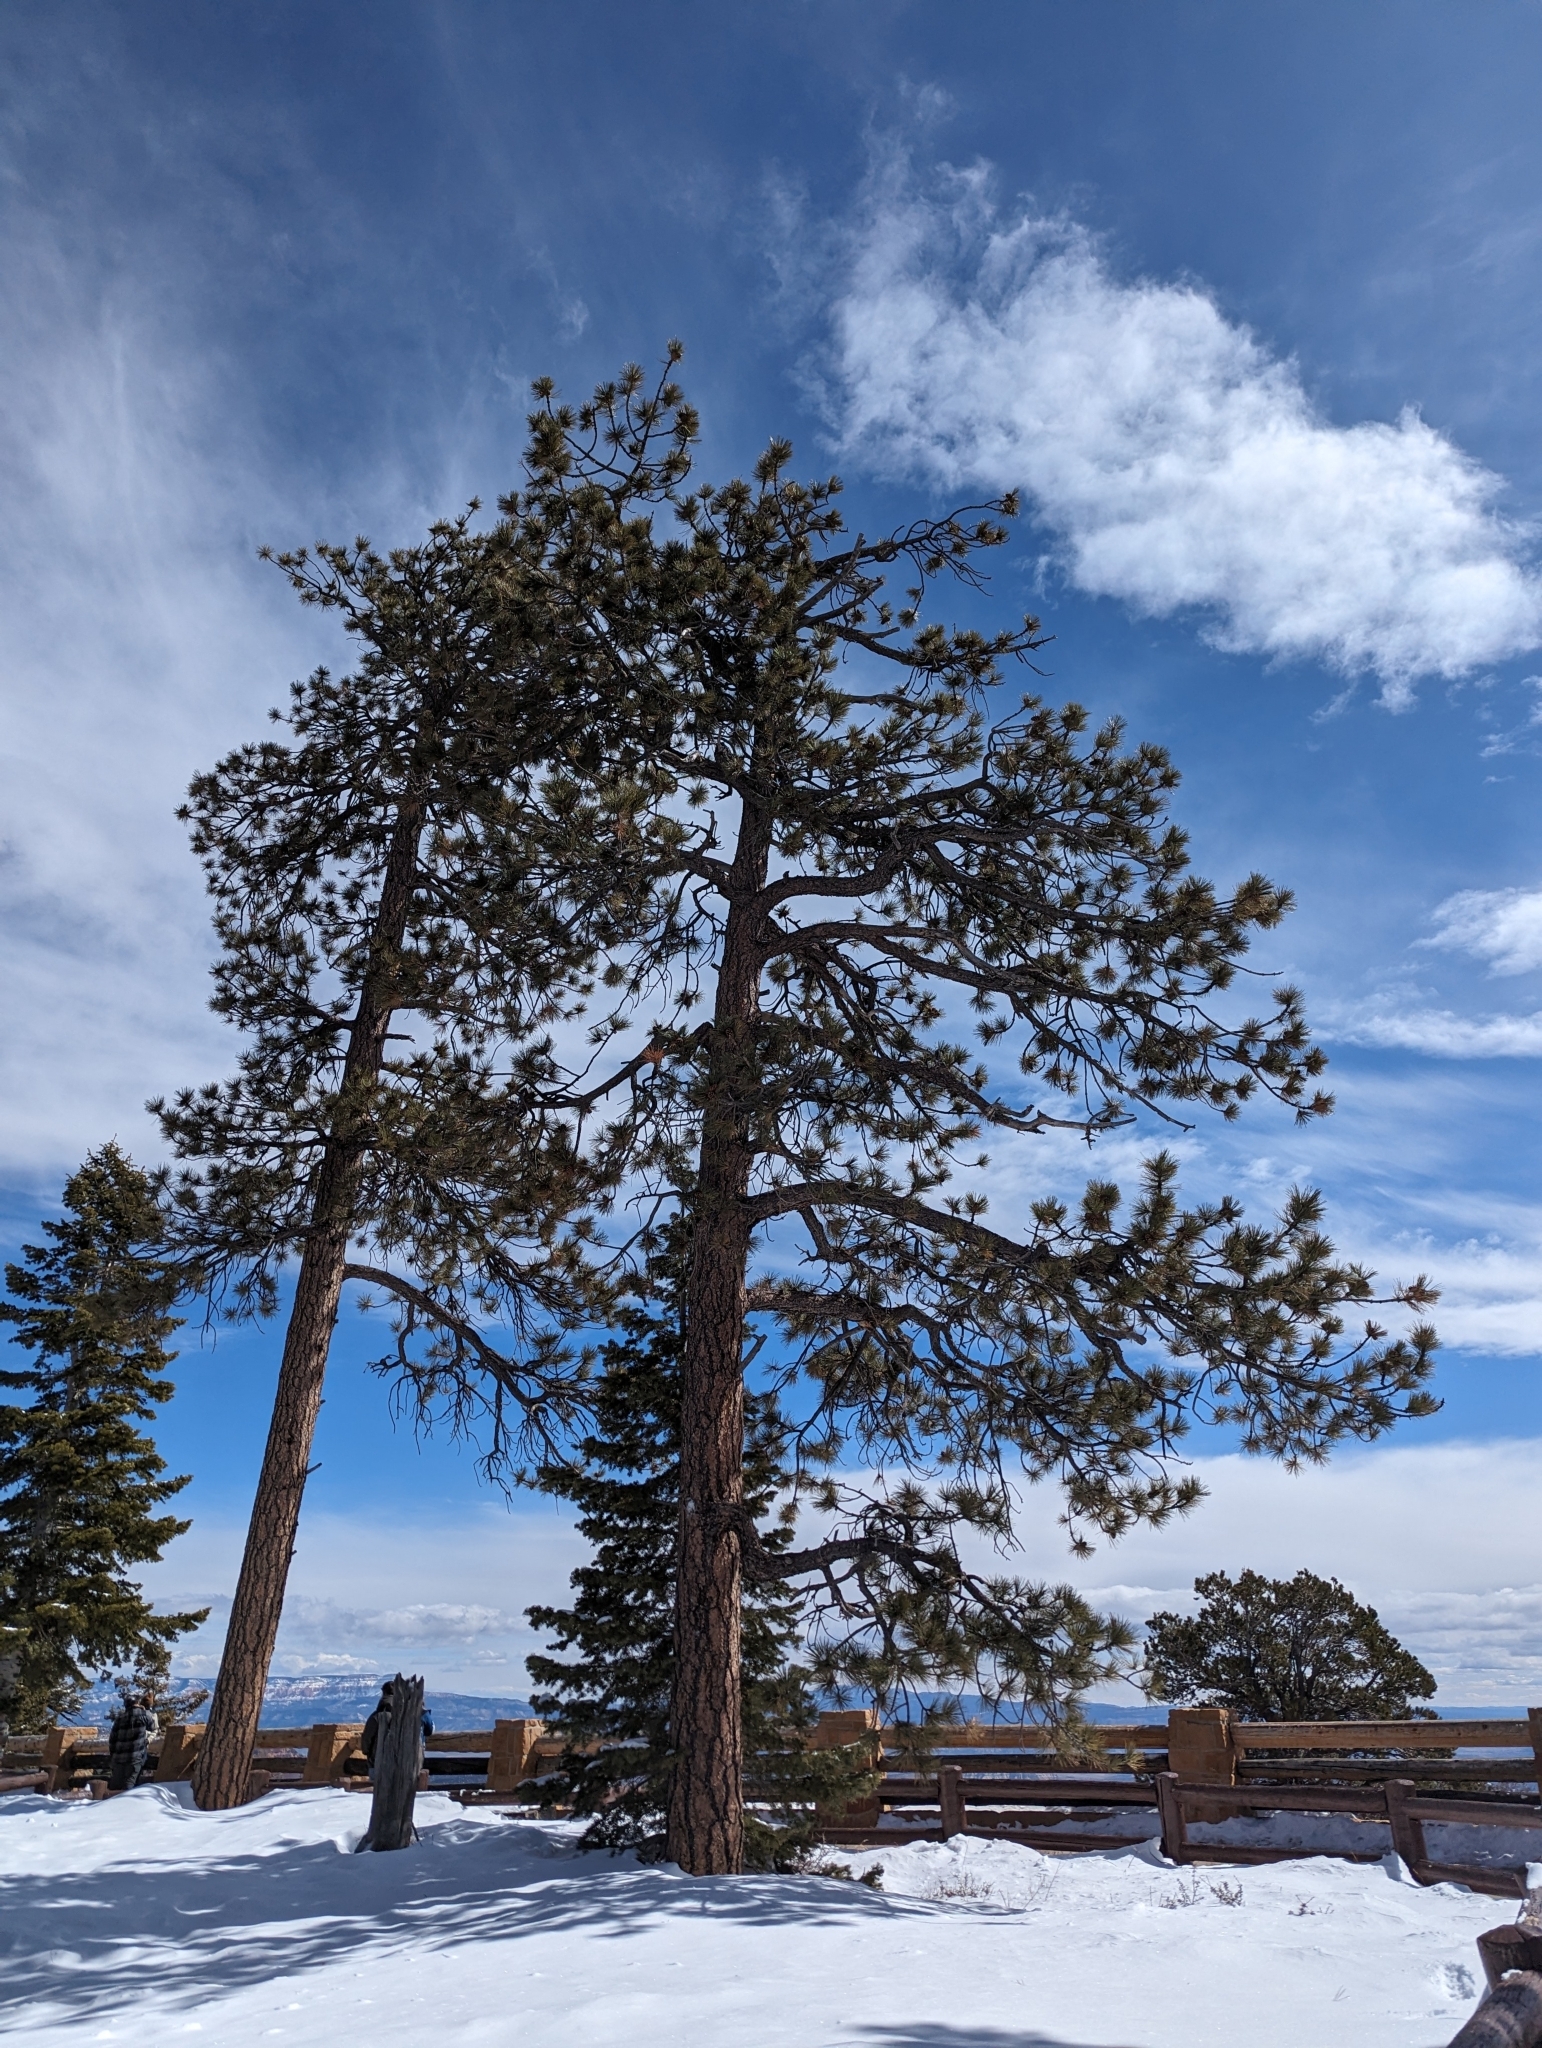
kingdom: Plantae
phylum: Tracheophyta
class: Pinopsida
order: Pinales
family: Pinaceae
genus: Pinus
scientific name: Pinus ponderosa
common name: Western yellow-pine
